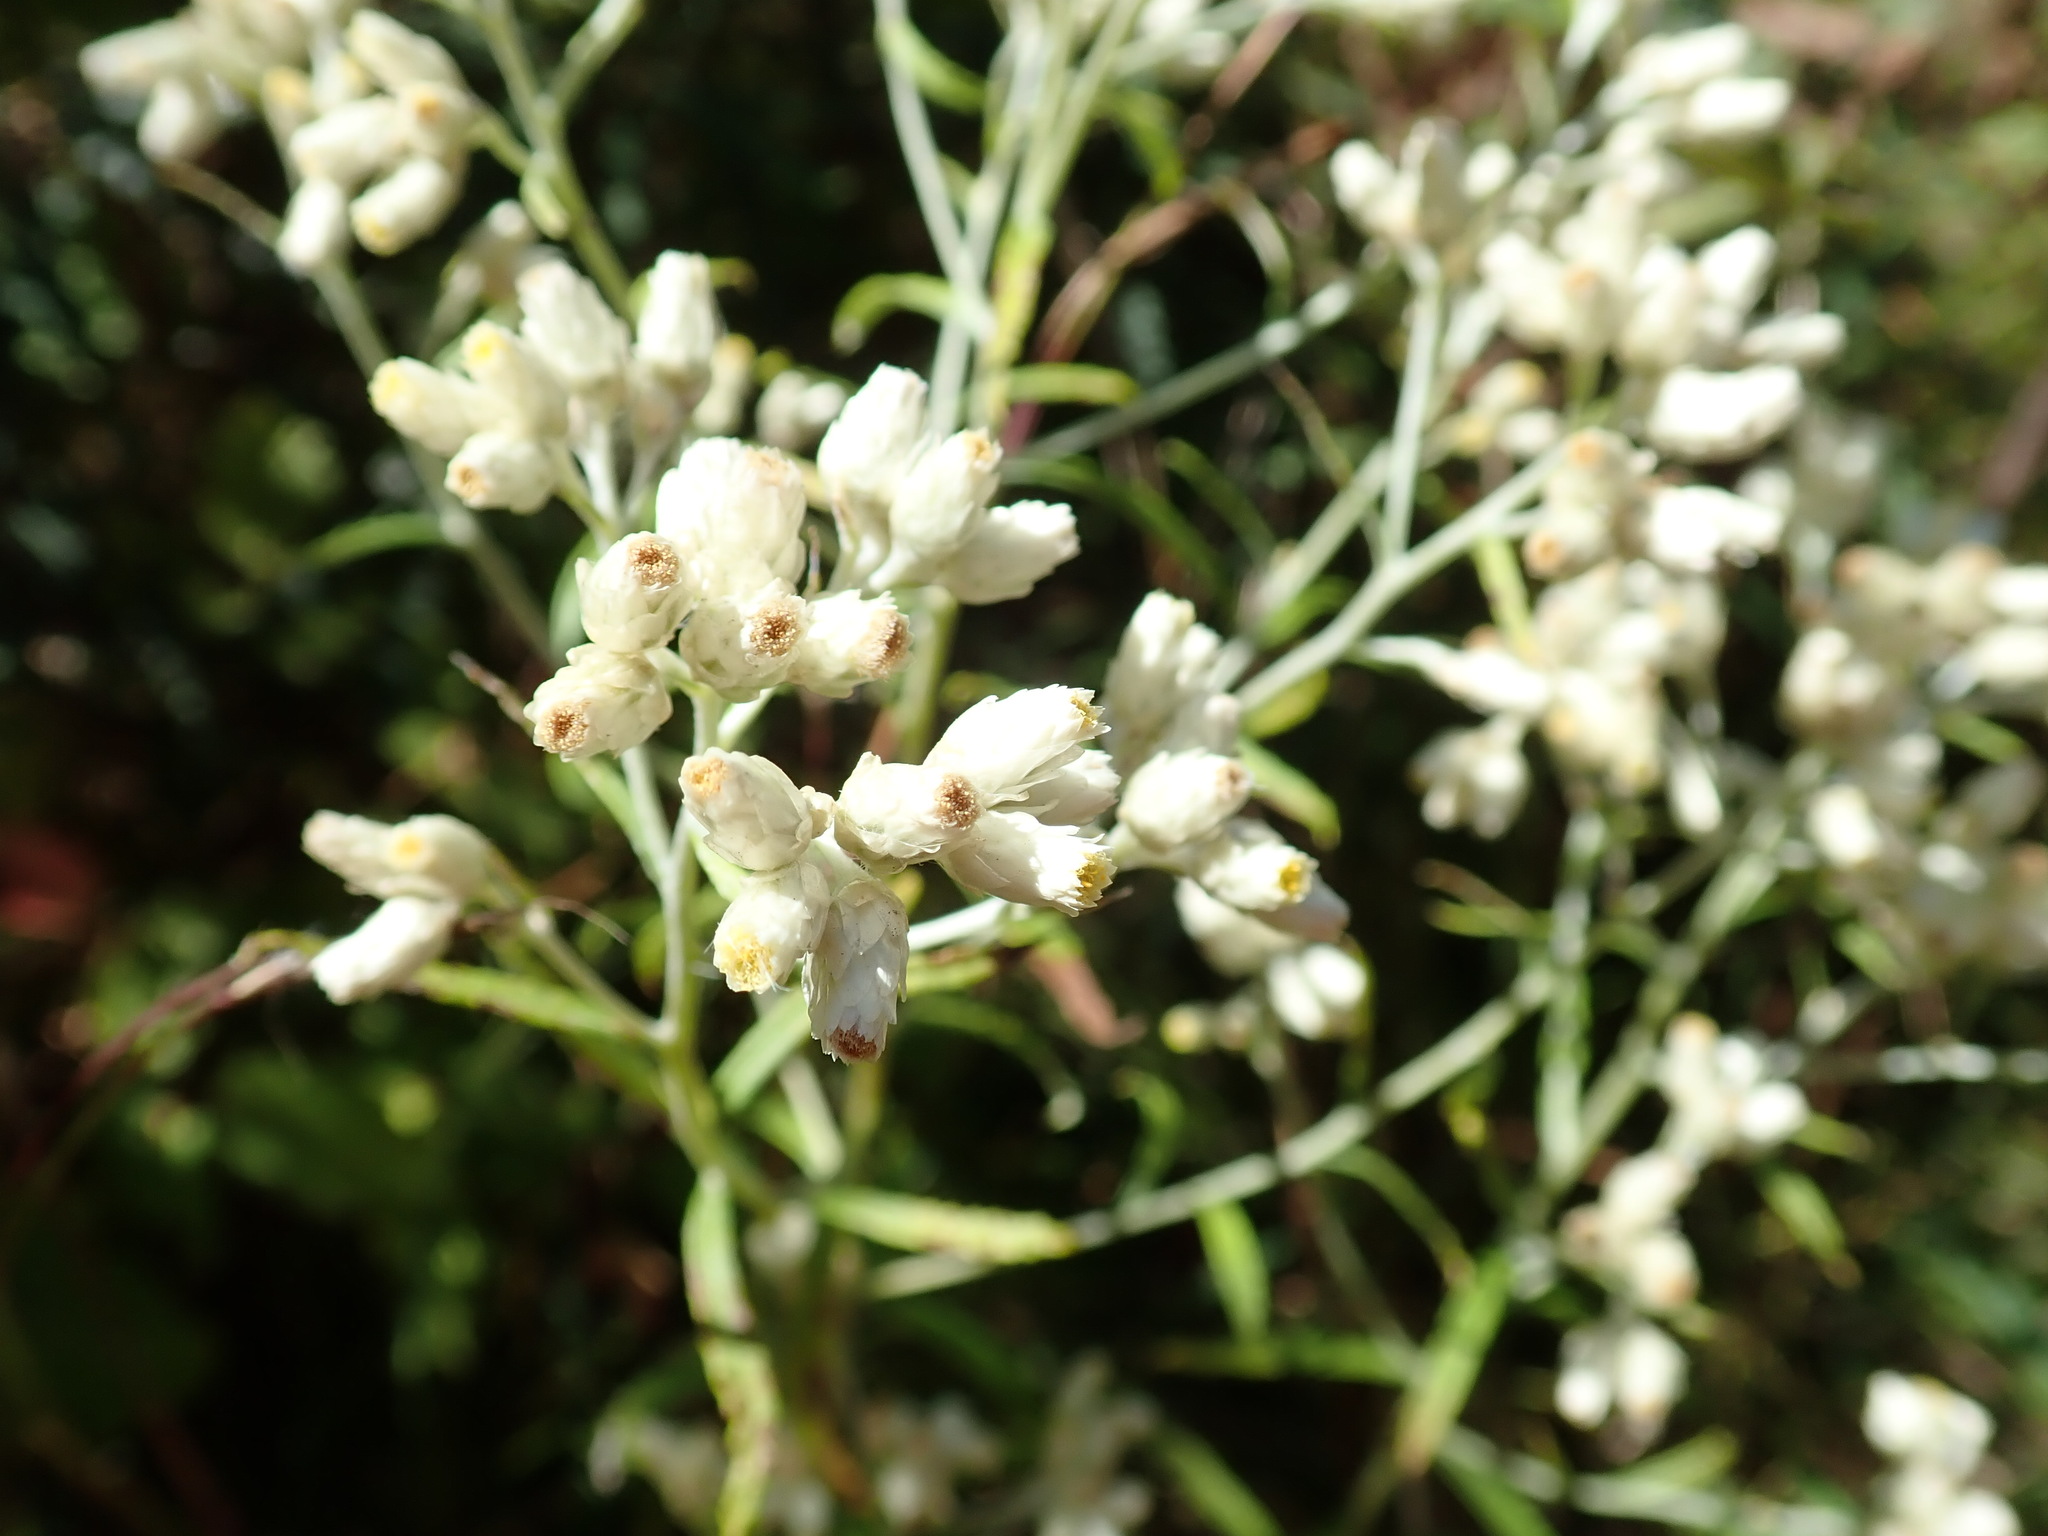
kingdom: Plantae
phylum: Tracheophyta
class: Magnoliopsida
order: Asterales
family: Asteraceae
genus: Pseudognaphalium
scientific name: Pseudognaphalium obtusifolium
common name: Eastern rabbit-tobacco
